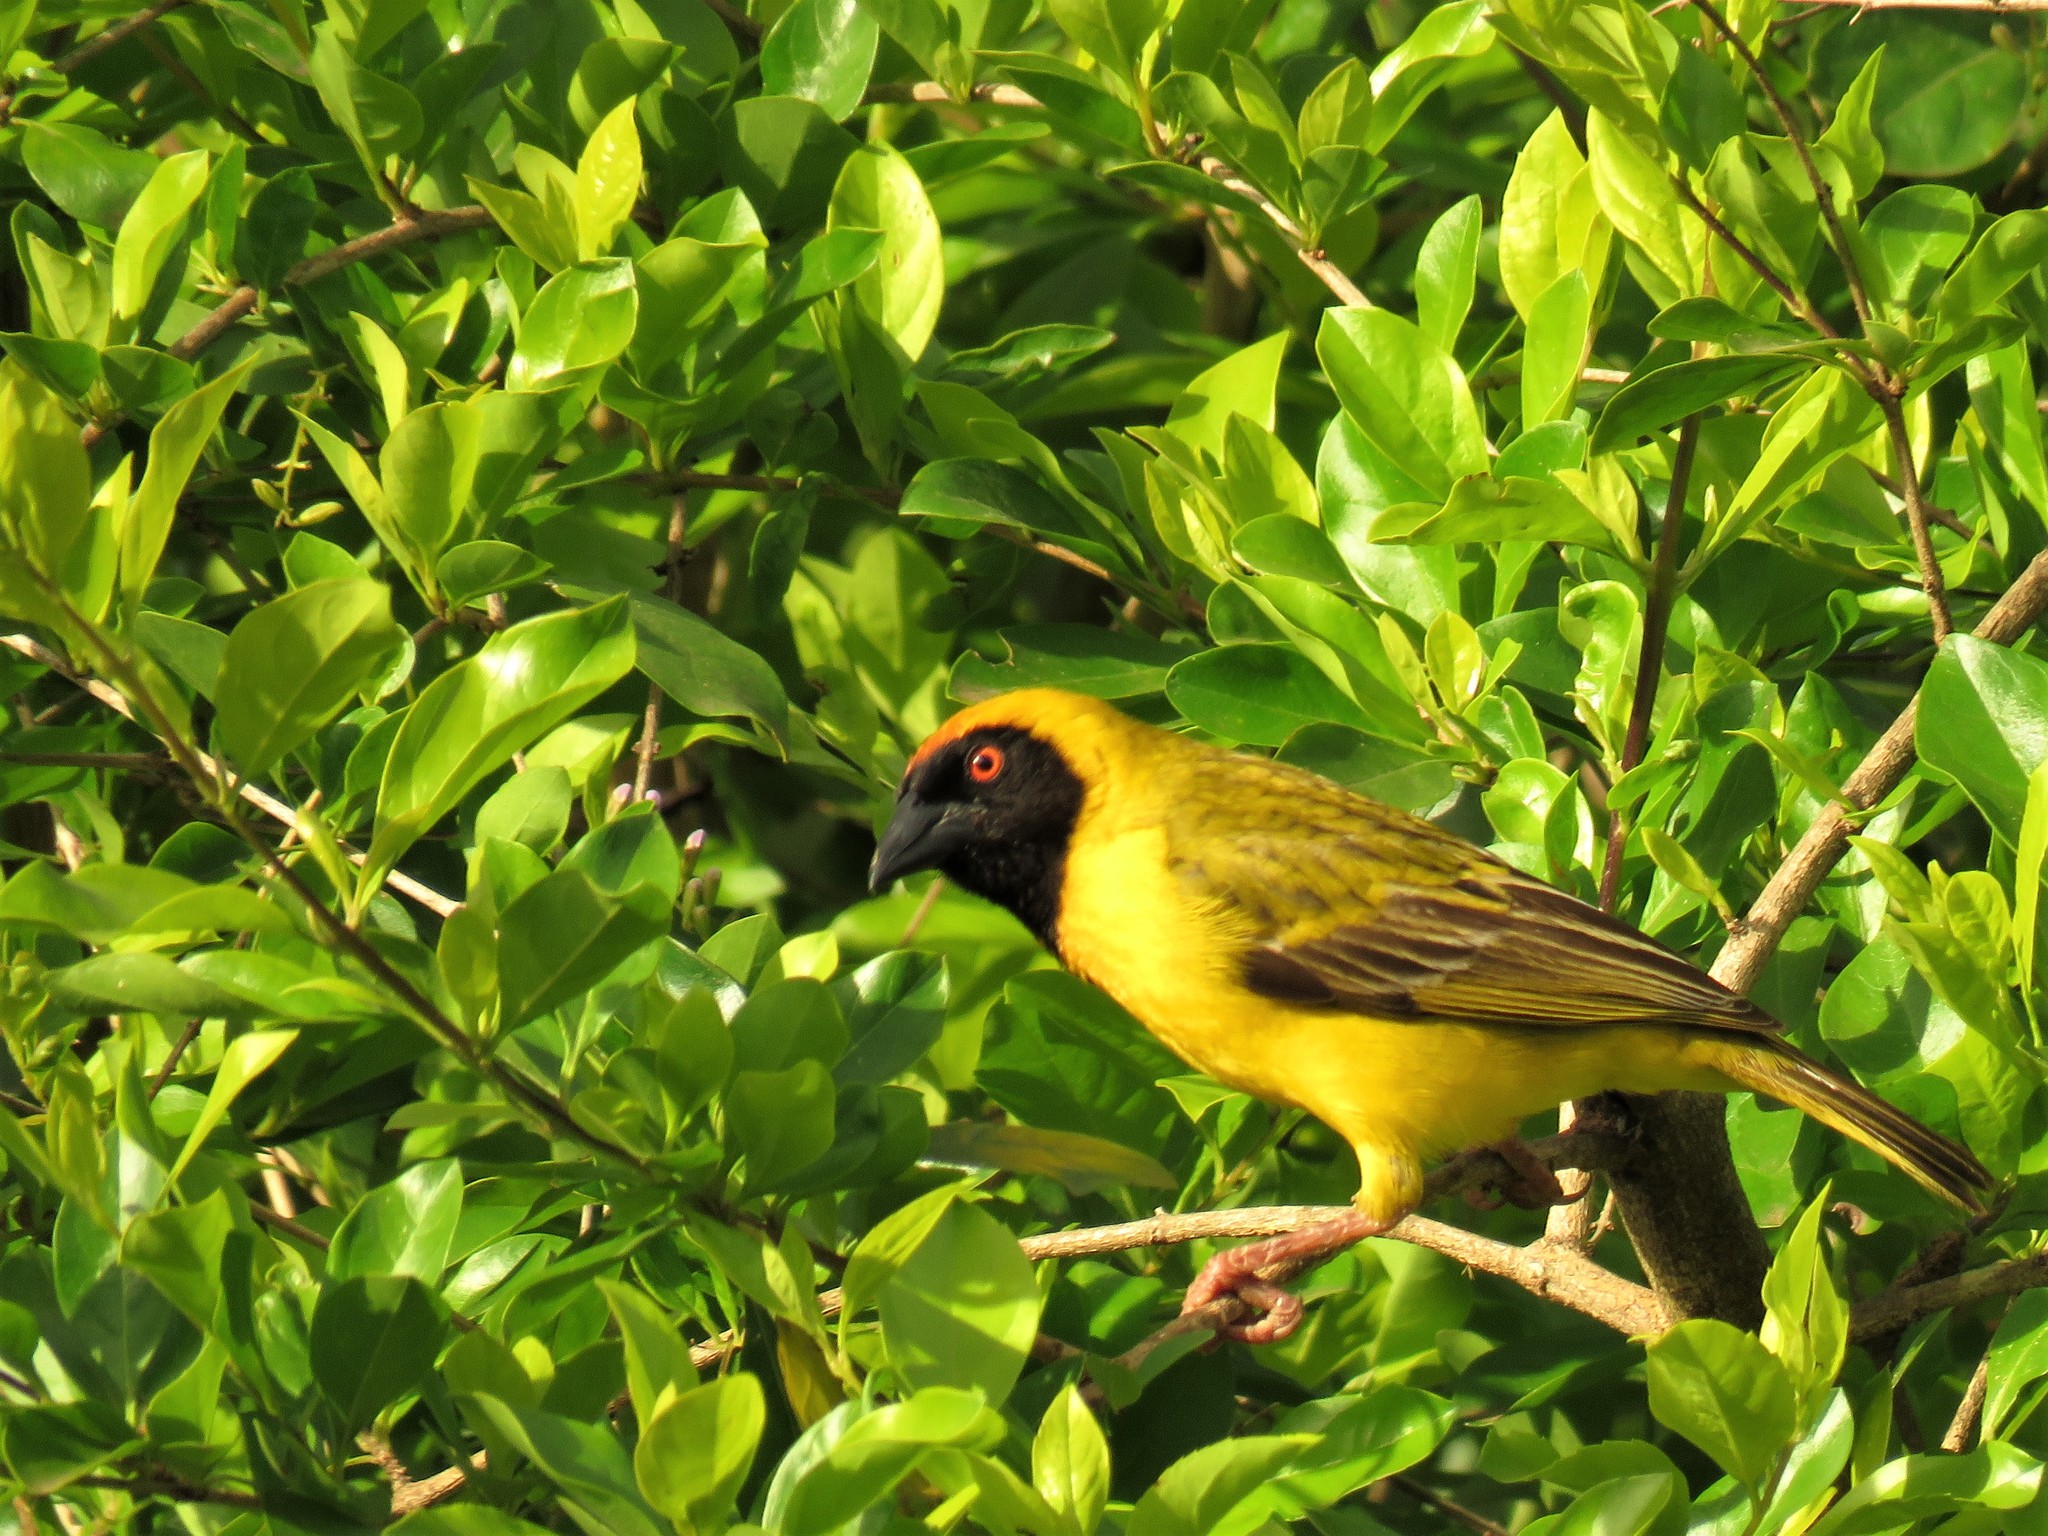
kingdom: Animalia
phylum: Chordata
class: Aves
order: Passeriformes
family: Ploceidae
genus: Ploceus
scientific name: Ploceus velatus
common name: Southern masked weaver
